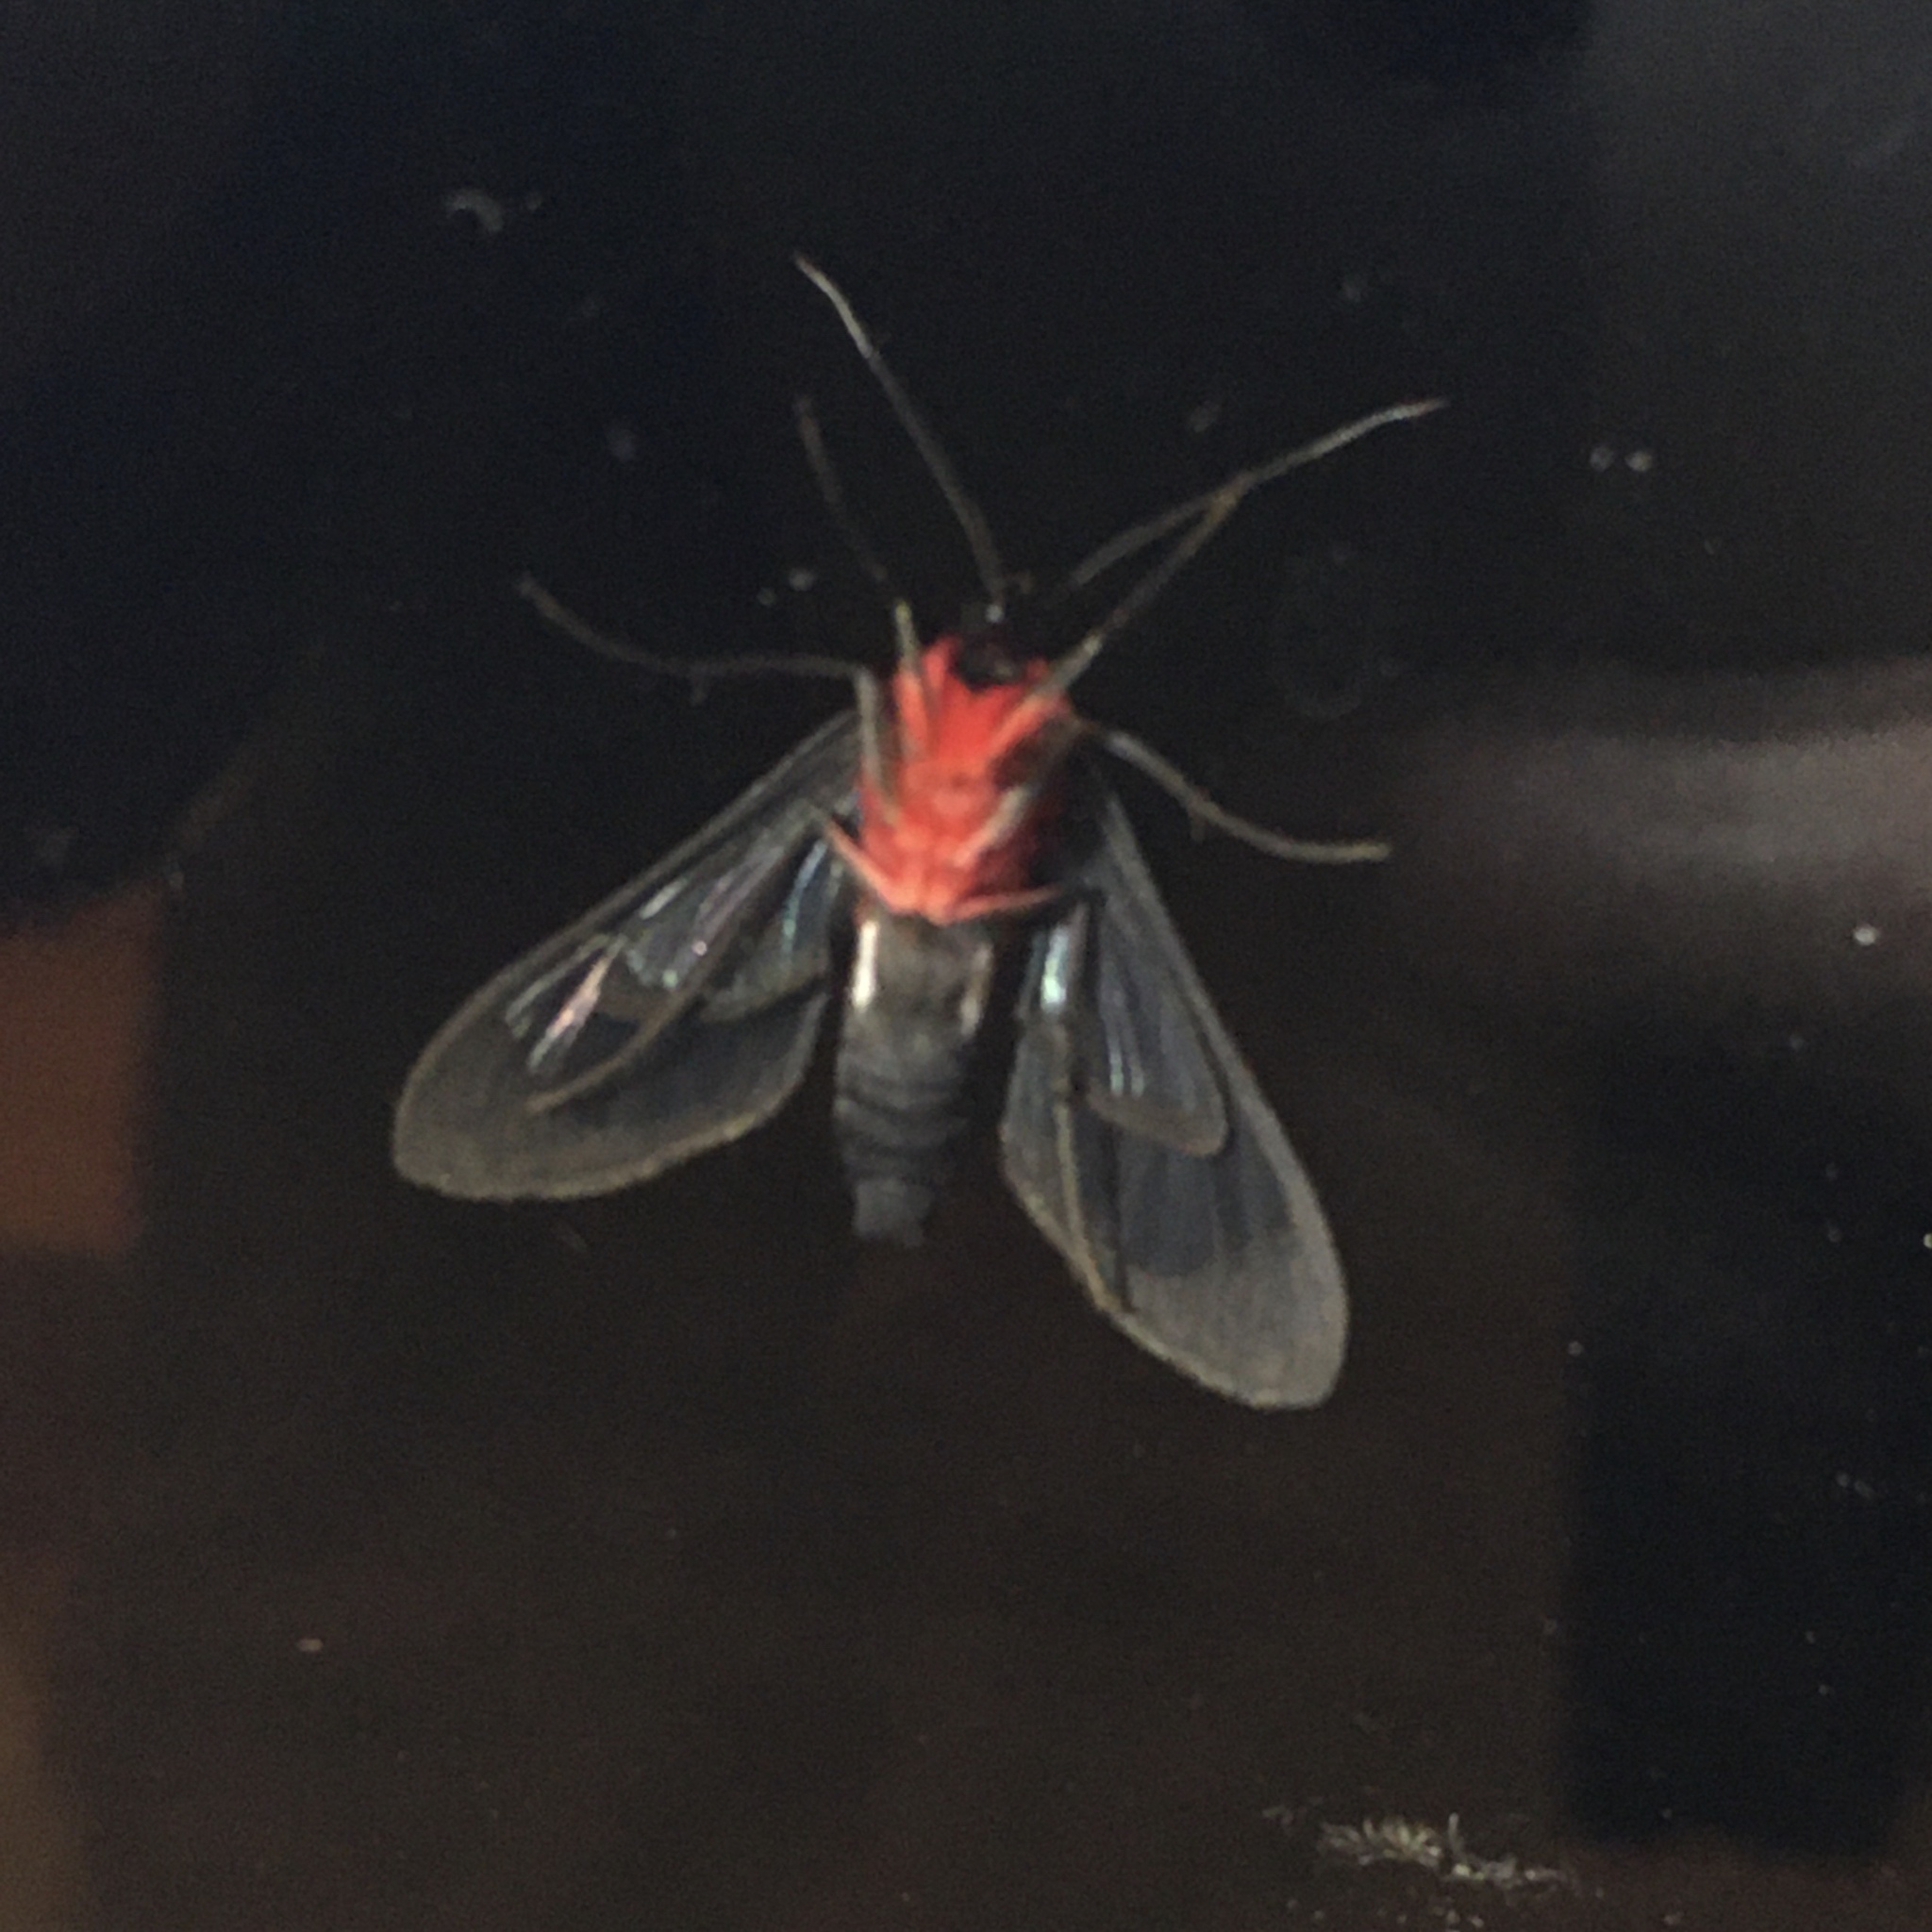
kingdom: Animalia
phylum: Arthropoda
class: Insecta
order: Lepidoptera
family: Erebidae
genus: Cosmosoma
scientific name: Cosmosoma auge
